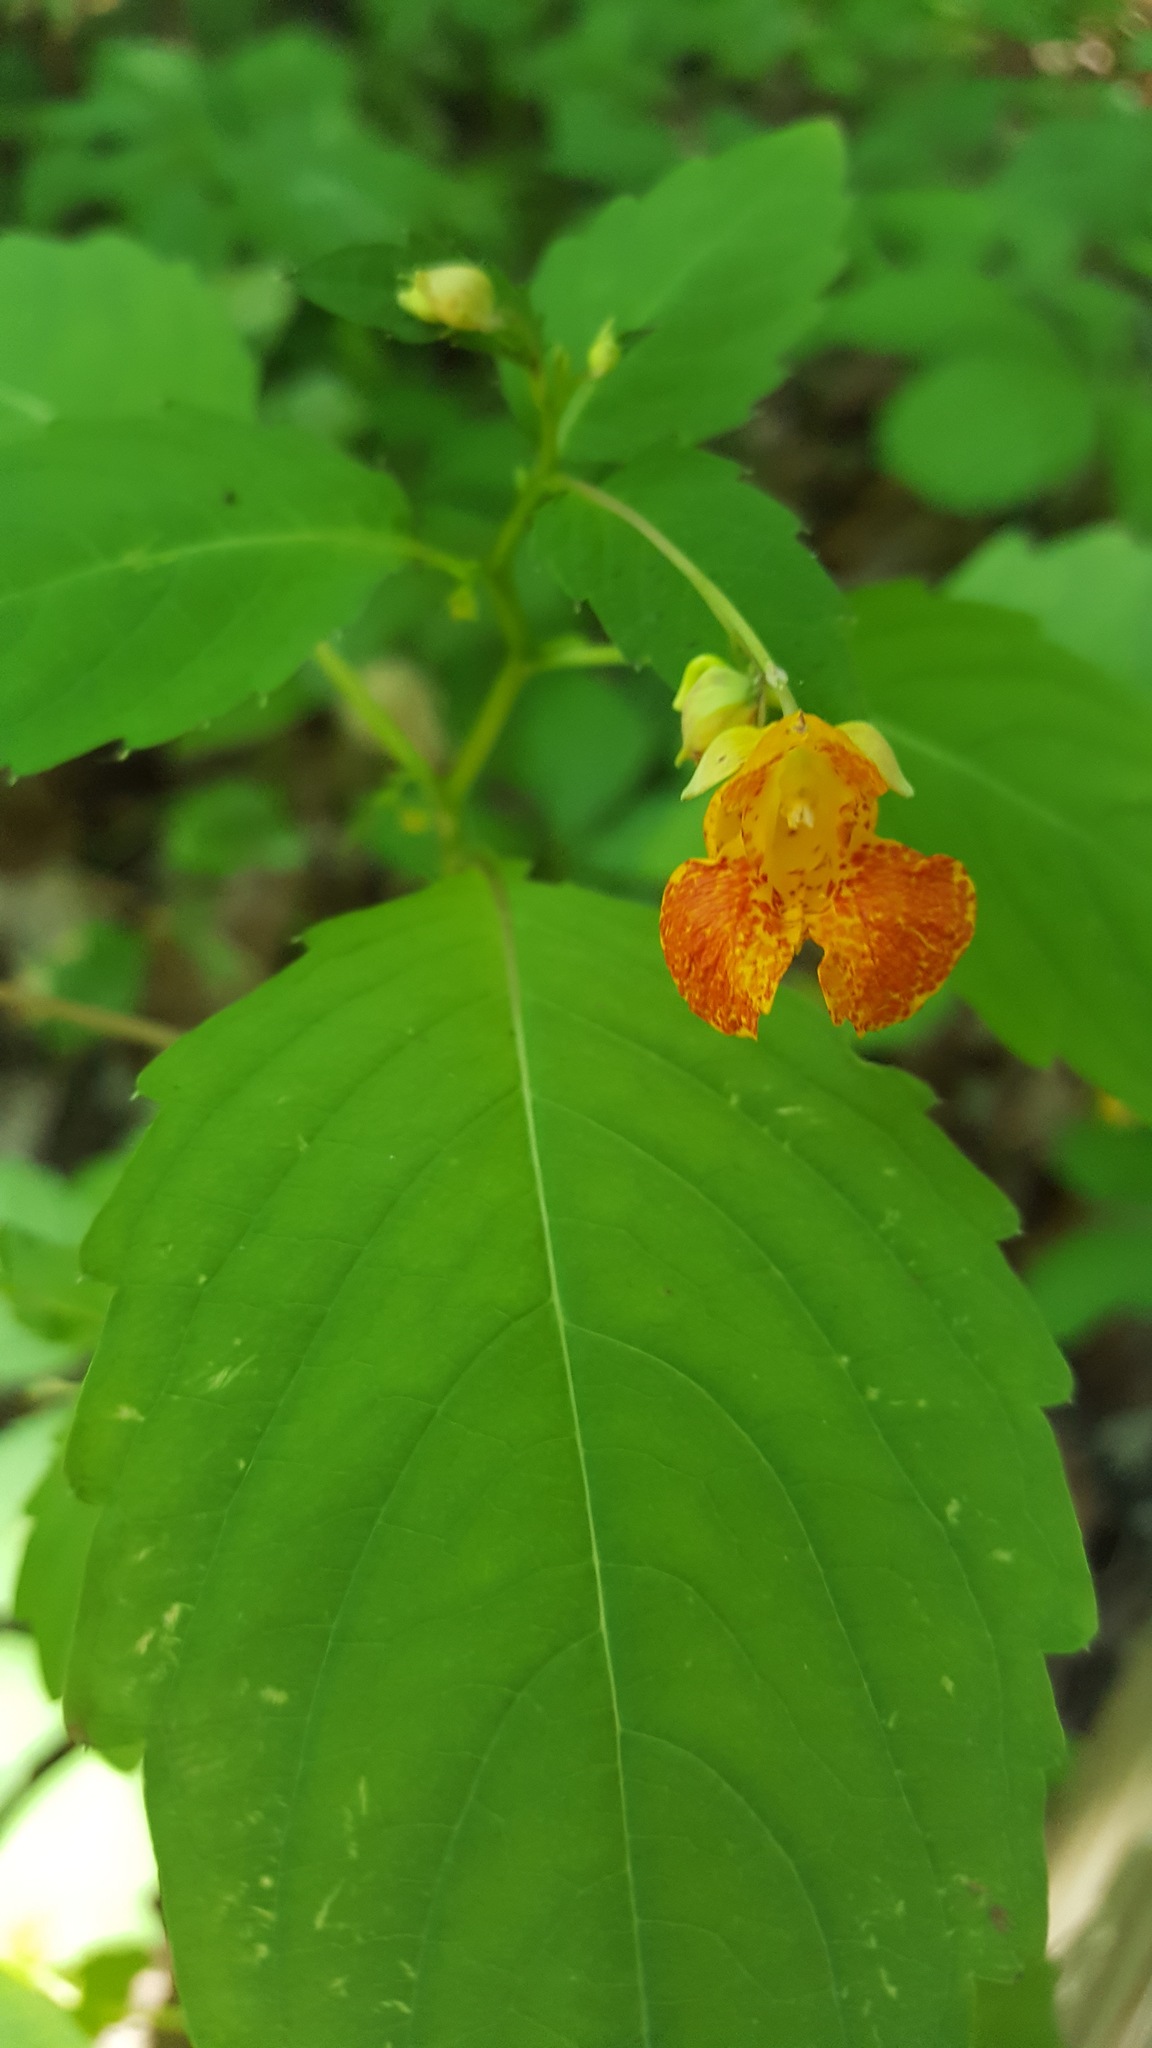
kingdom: Plantae
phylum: Tracheophyta
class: Magnoliopsida
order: Ericales
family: Balsaminaceae
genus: Impatiens
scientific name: Impatiens capensis
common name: Orange balsam
